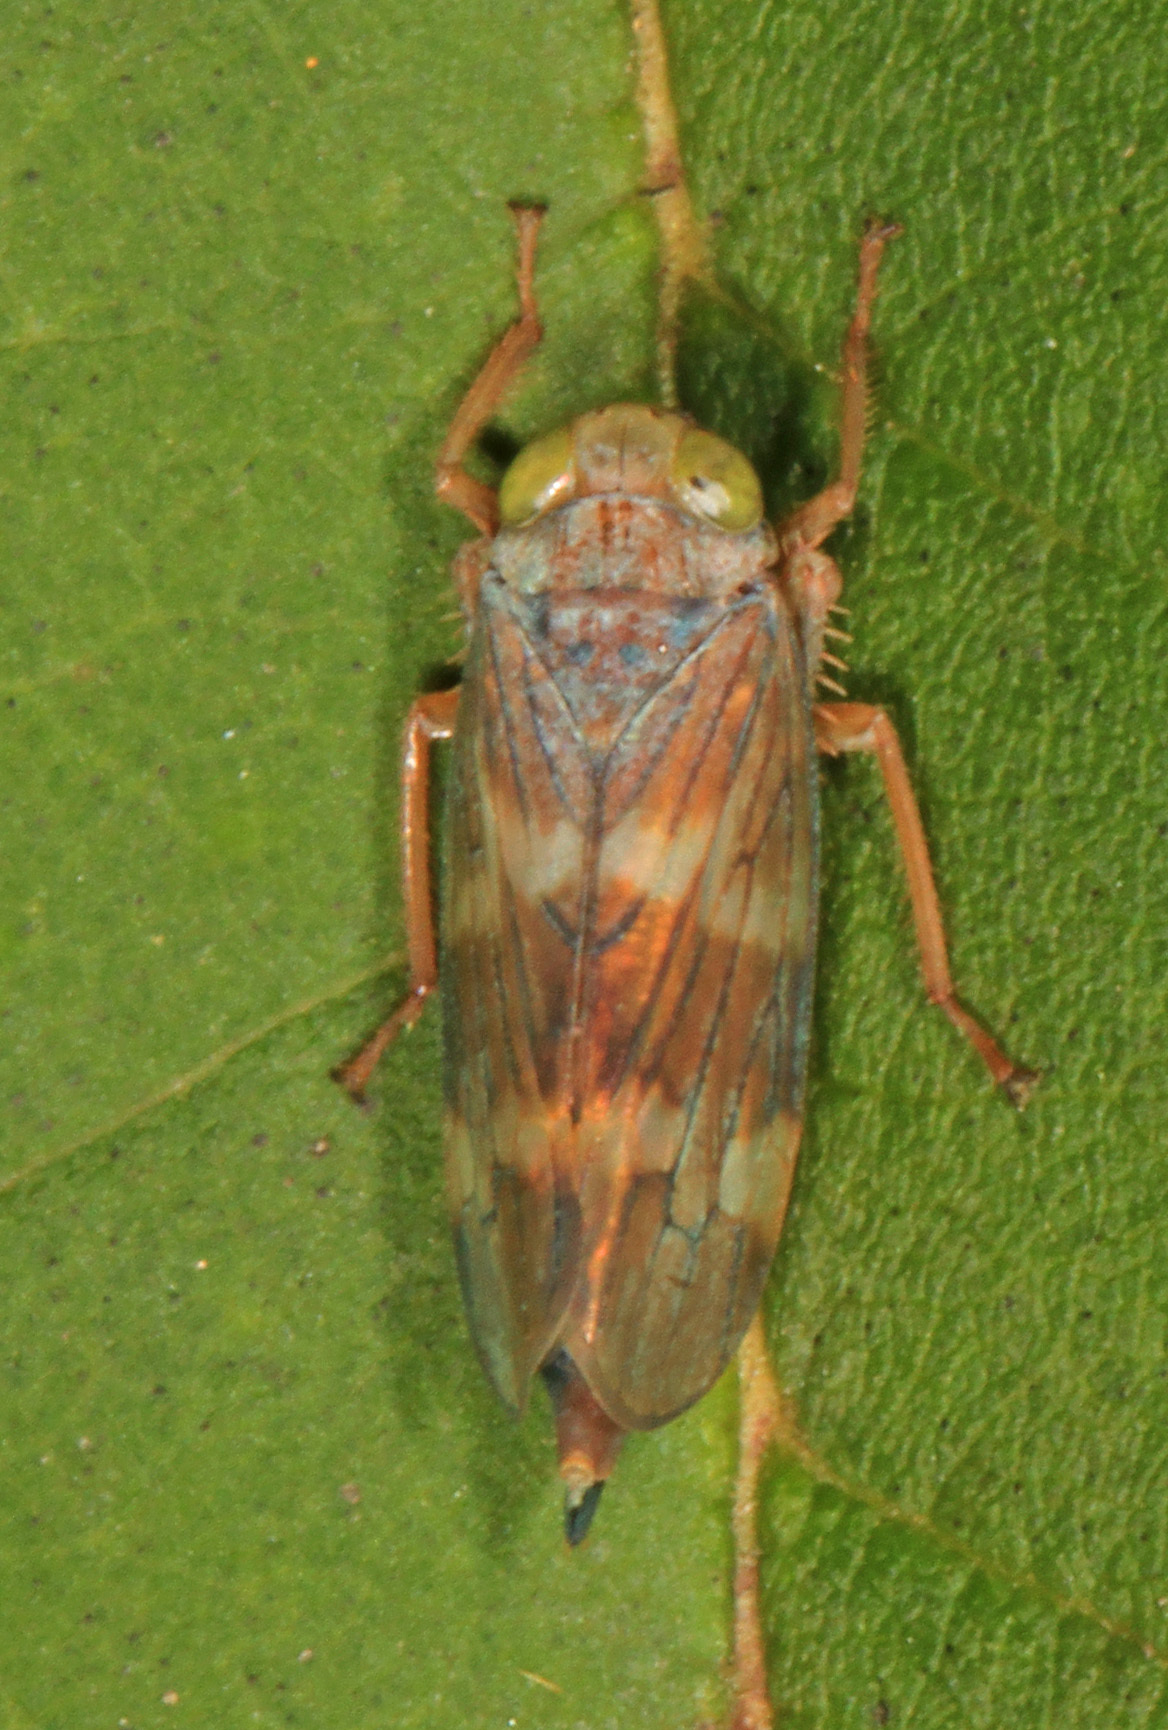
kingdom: Animalia
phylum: Arthropoda
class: Insecta
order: Hemiptera
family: Cicadellidae
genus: Jikradia
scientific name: Jikradia olitoria
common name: Coppery leafhopper
